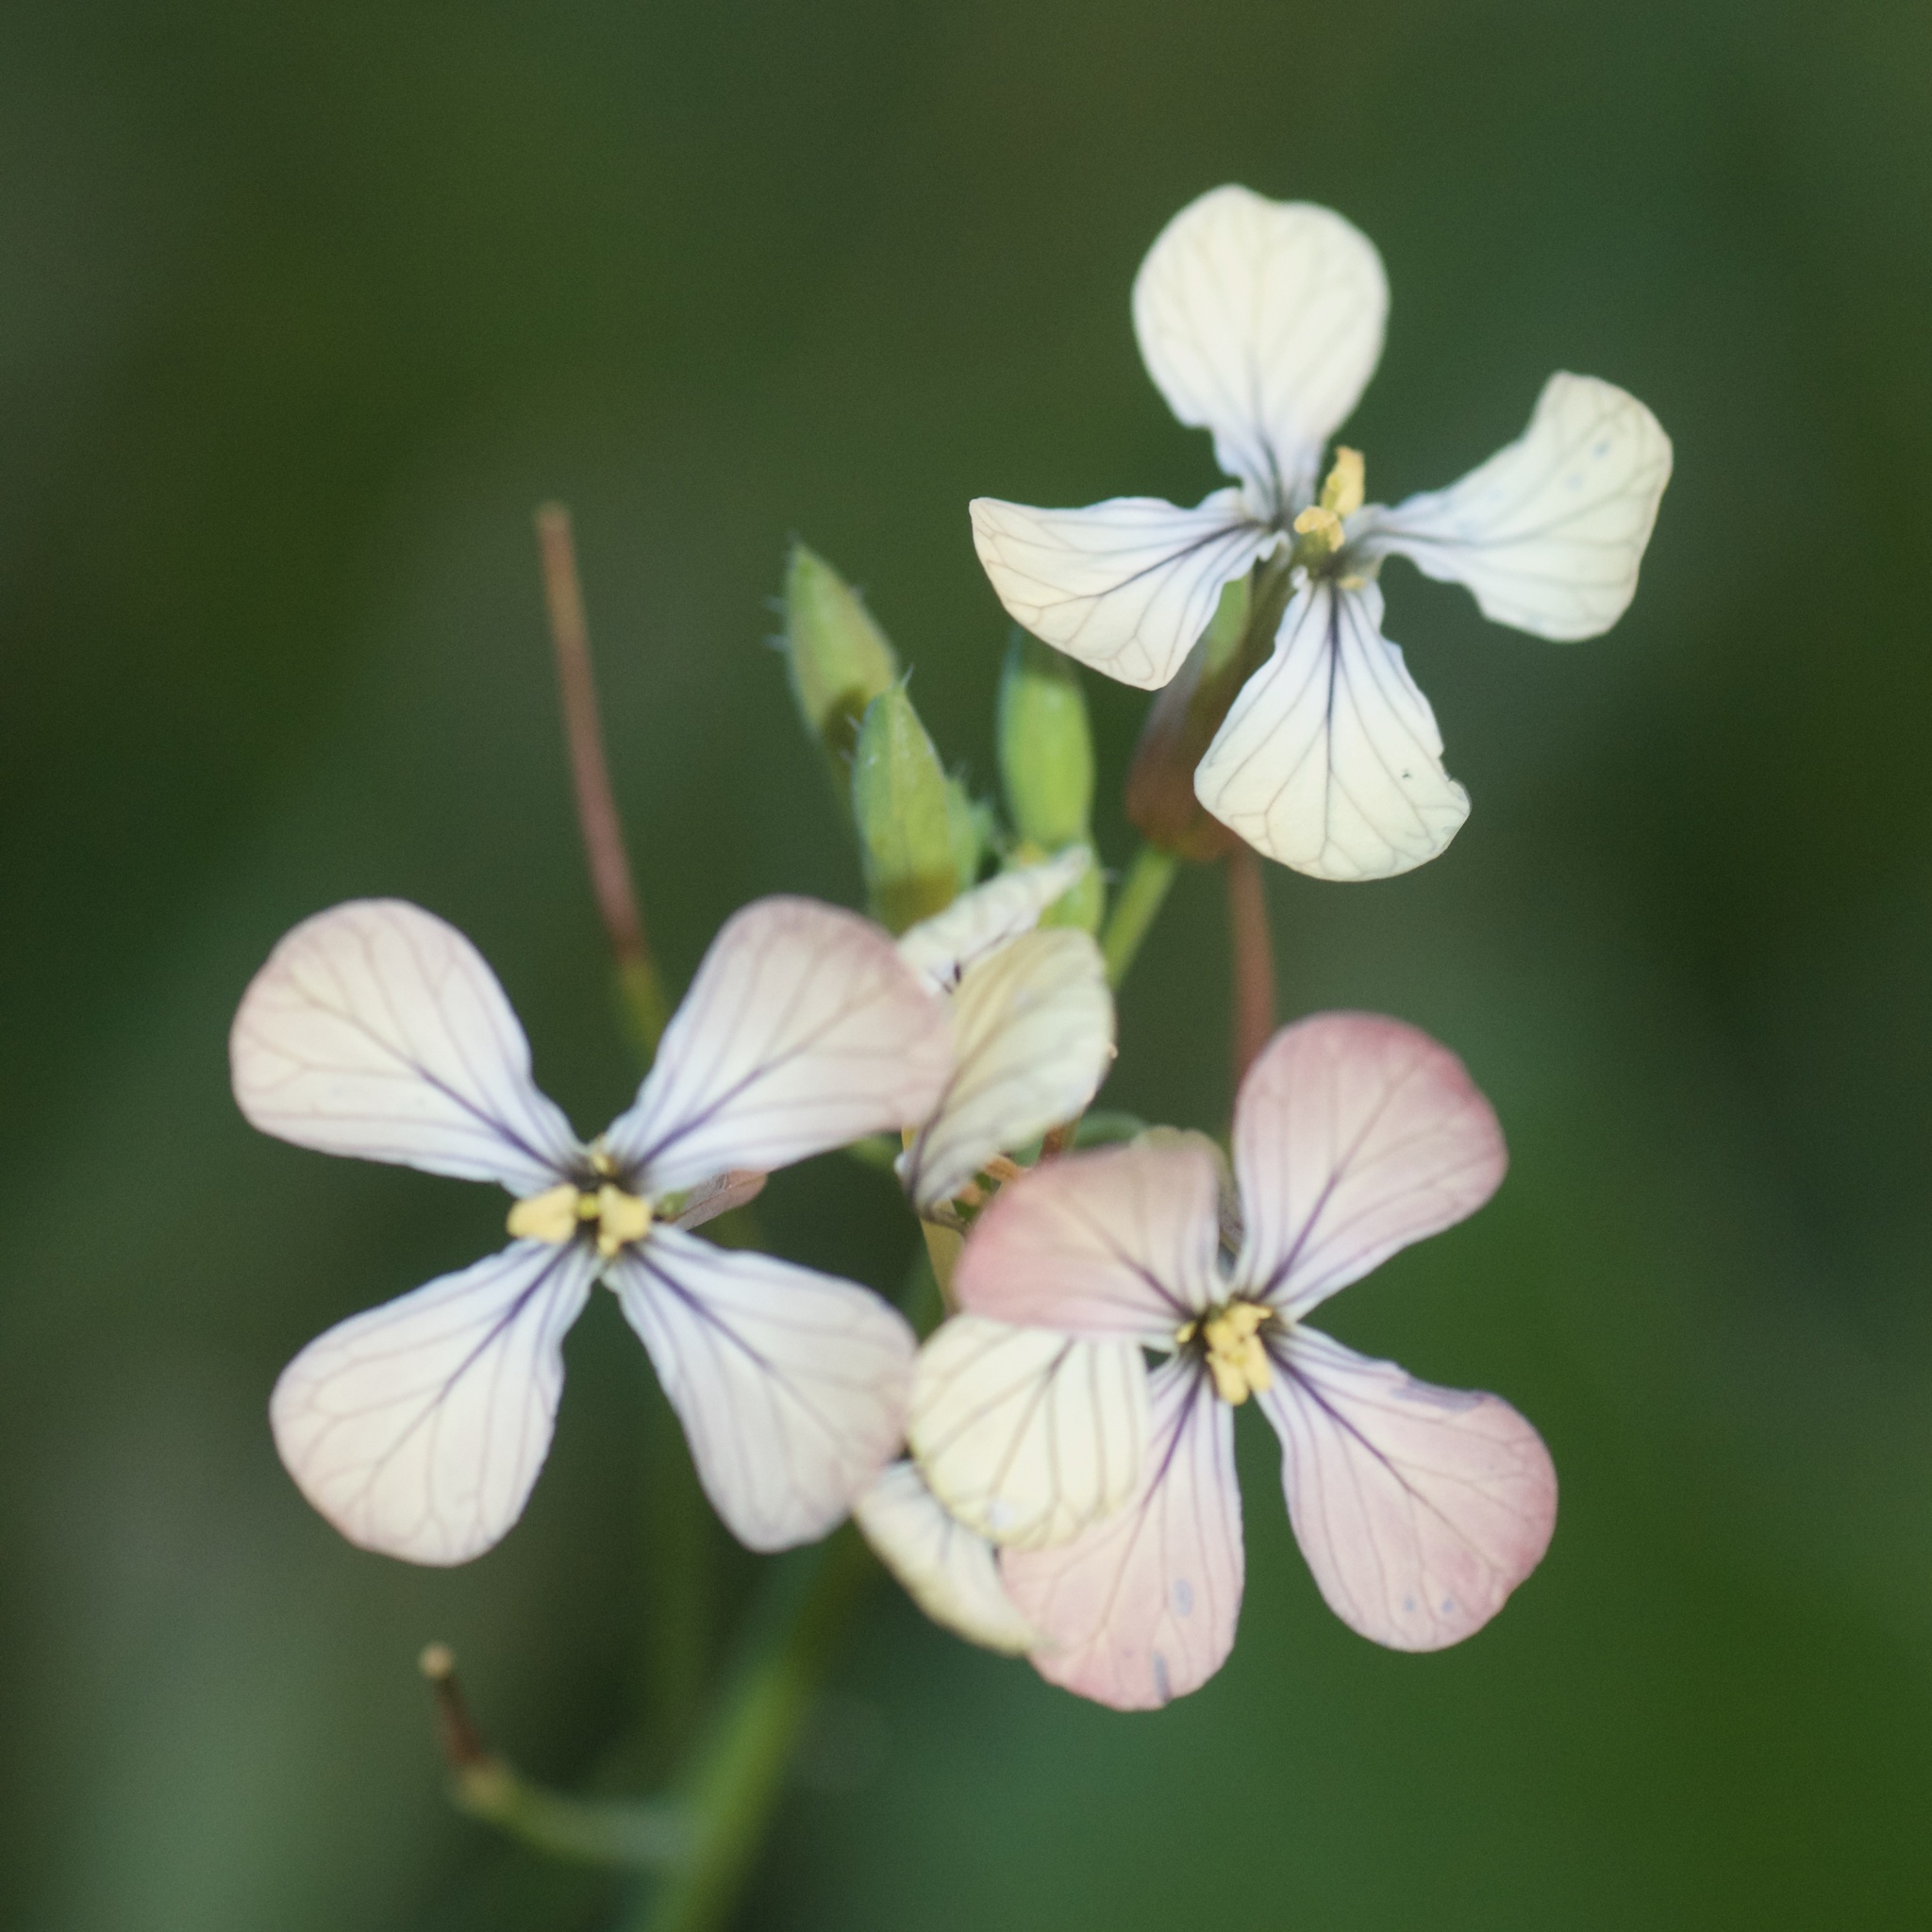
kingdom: Plantae
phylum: Tracheophyta
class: Magnoliopsida
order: Brassicales
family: Brassicaceae
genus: Raphanus
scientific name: Raphanus raphanistrum
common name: Wild radish
